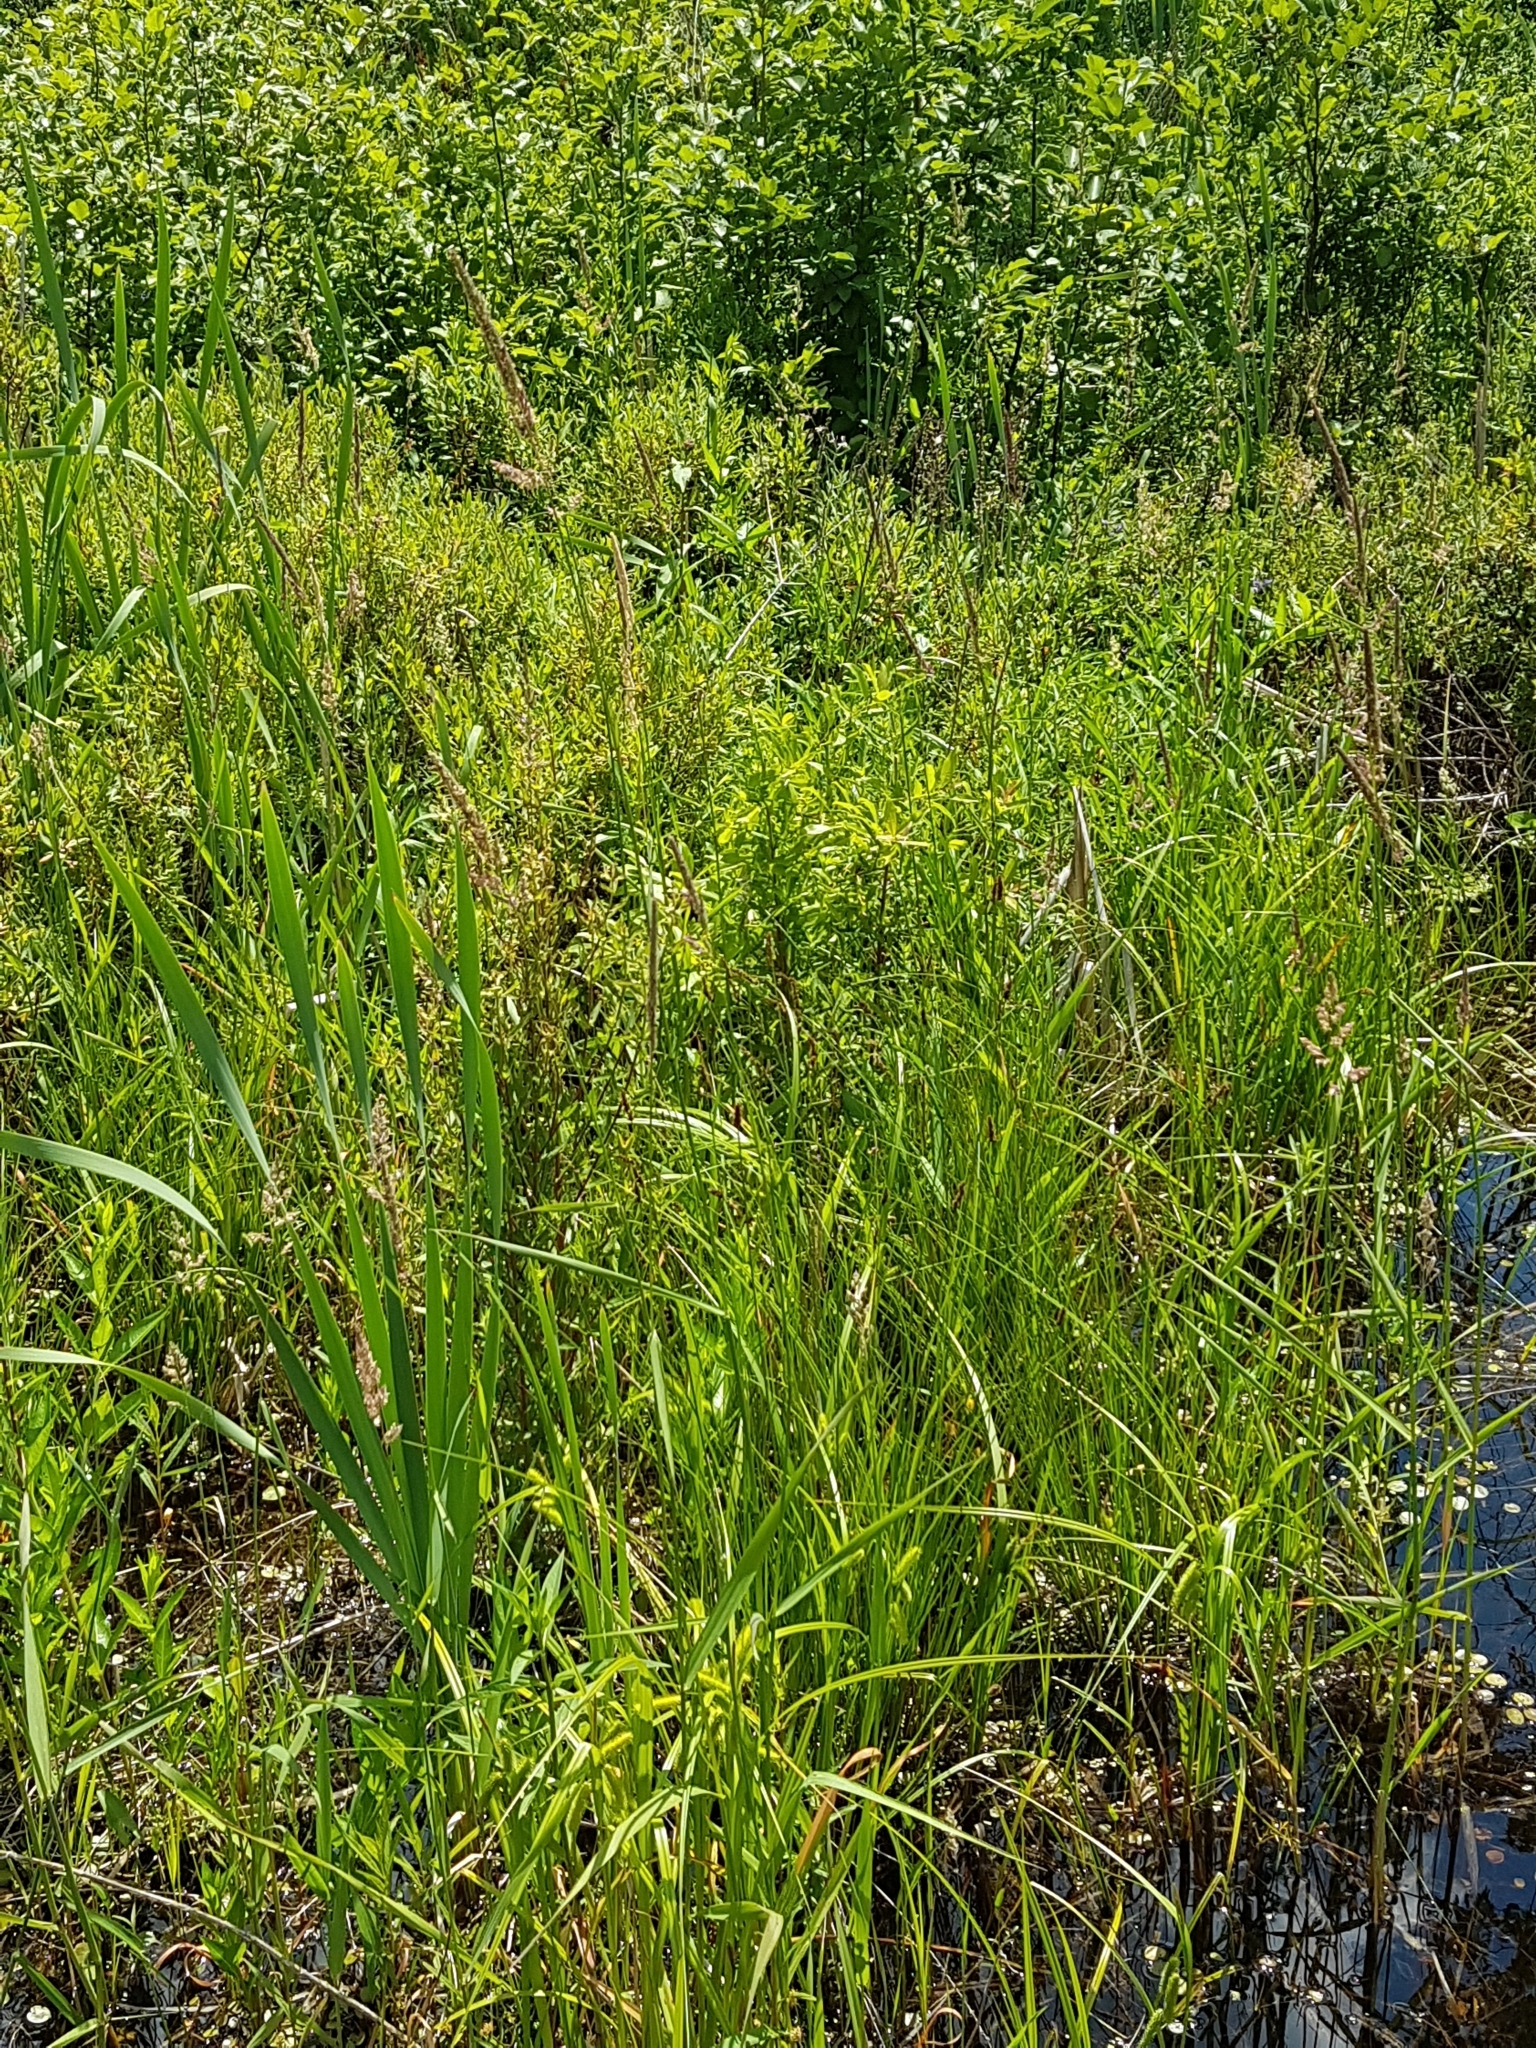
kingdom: Plantae
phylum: Tracheophyta
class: Liliopsida
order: Poales
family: Poaceae
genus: Phalaris
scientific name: Phalaris arundinacea
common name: Reed canary-grass
